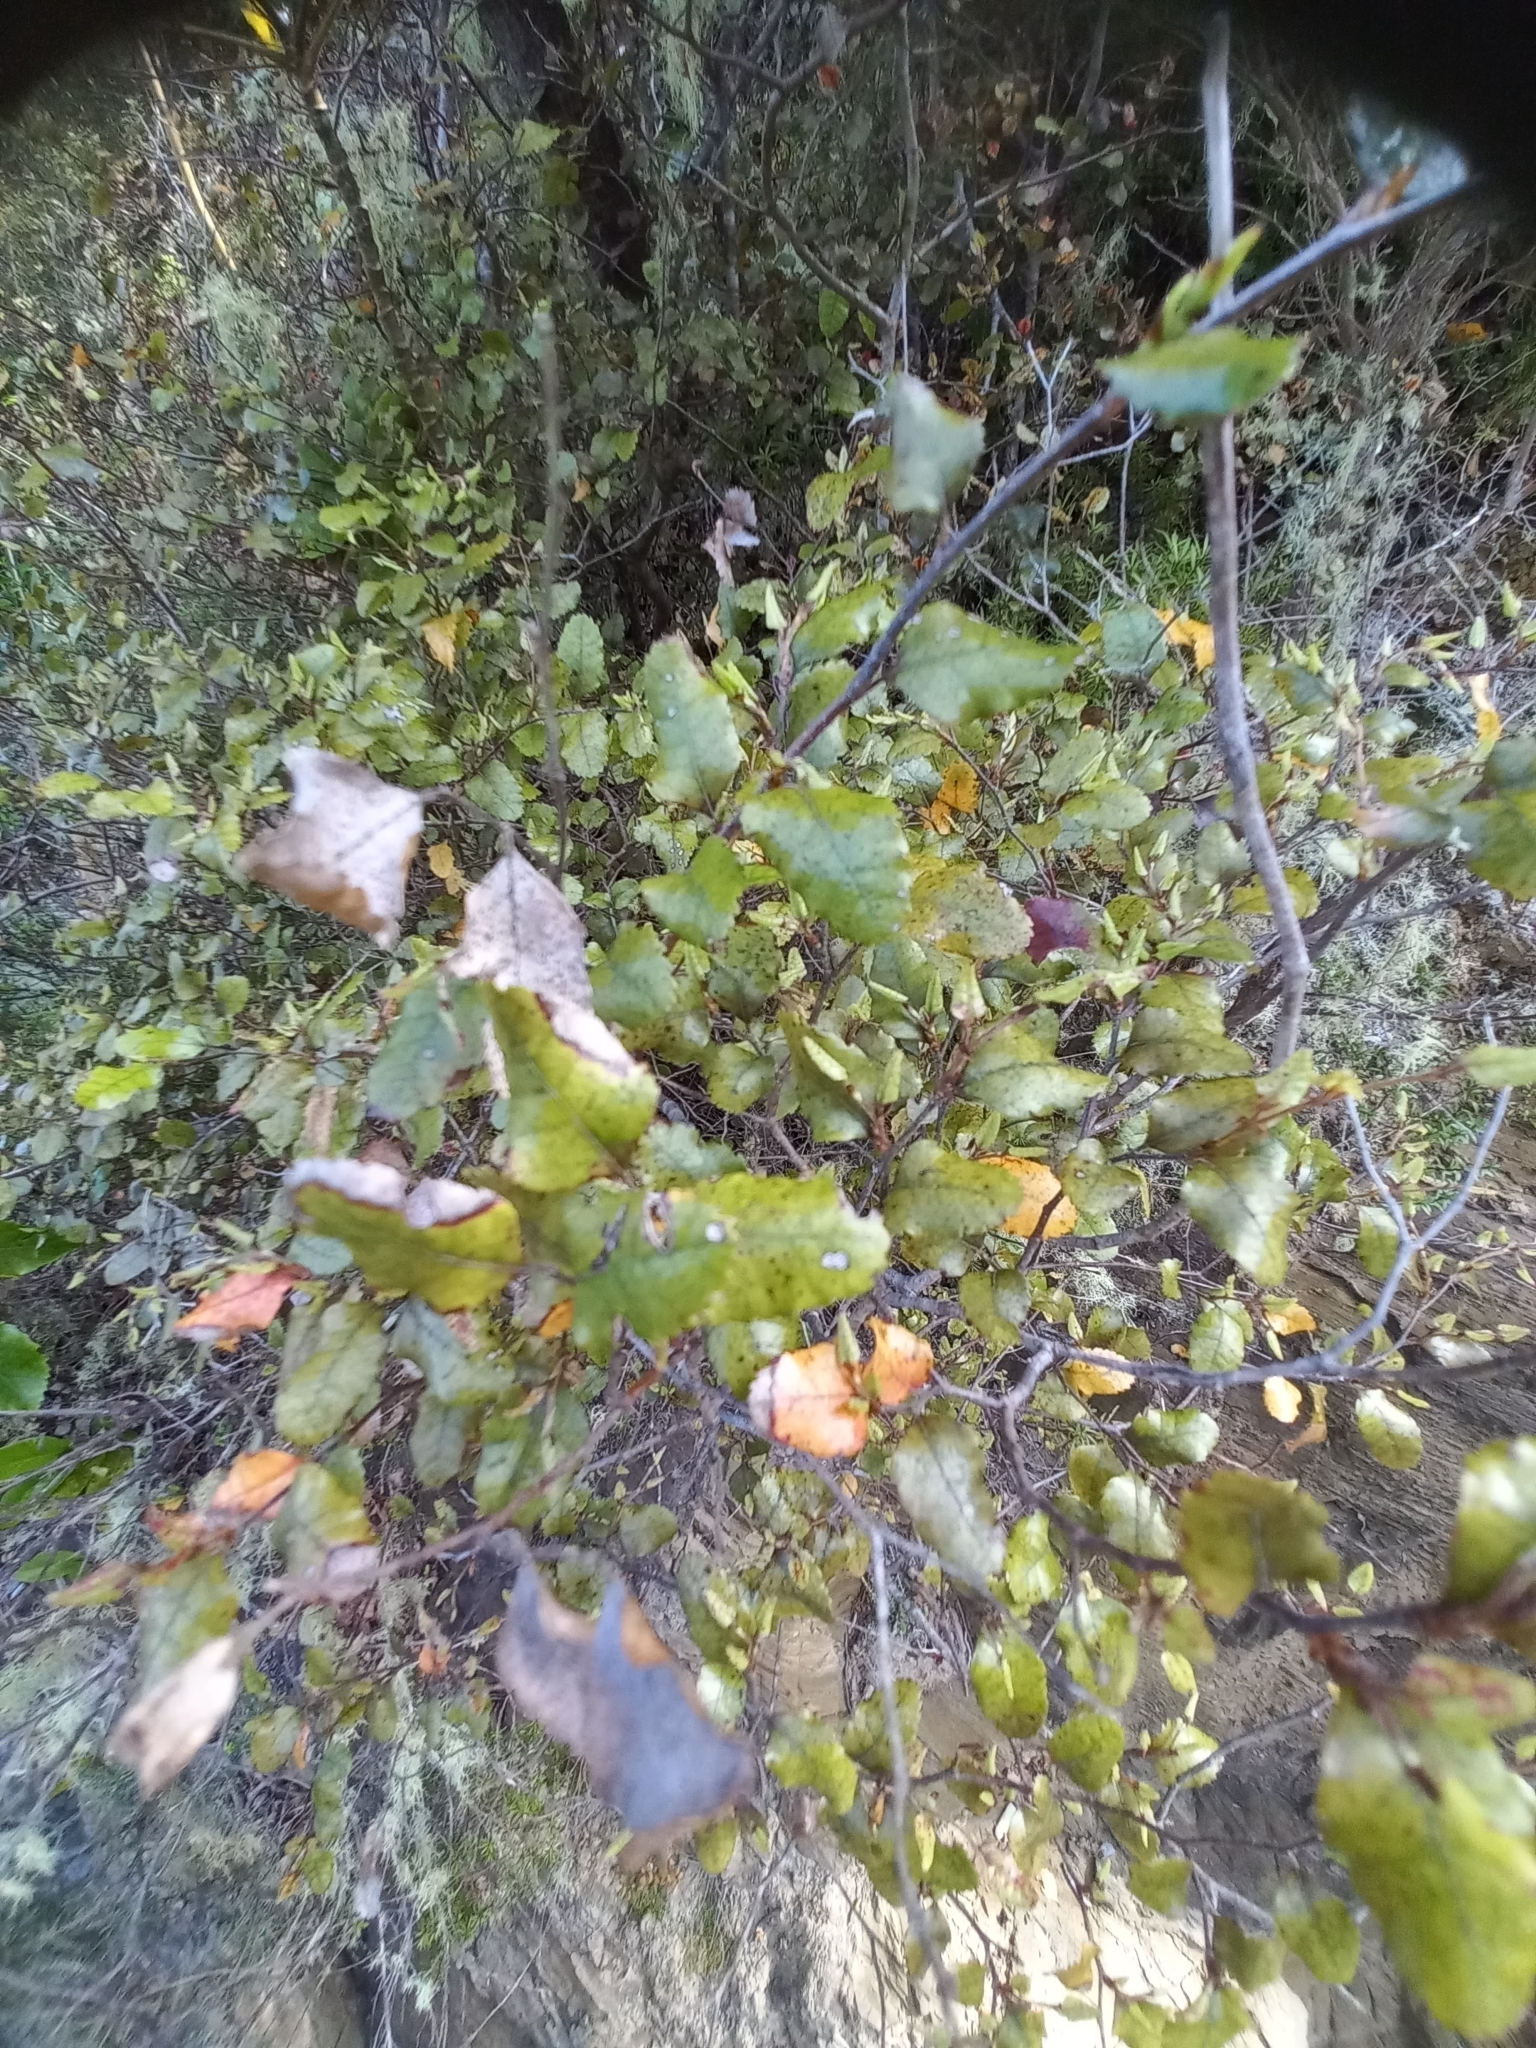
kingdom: Plantae
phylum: Tracheophyta
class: Magnoliopsida
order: Fagales
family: Nothofagaceae
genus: Nothofagus
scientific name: Nothofagus truncata
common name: Hard beech
